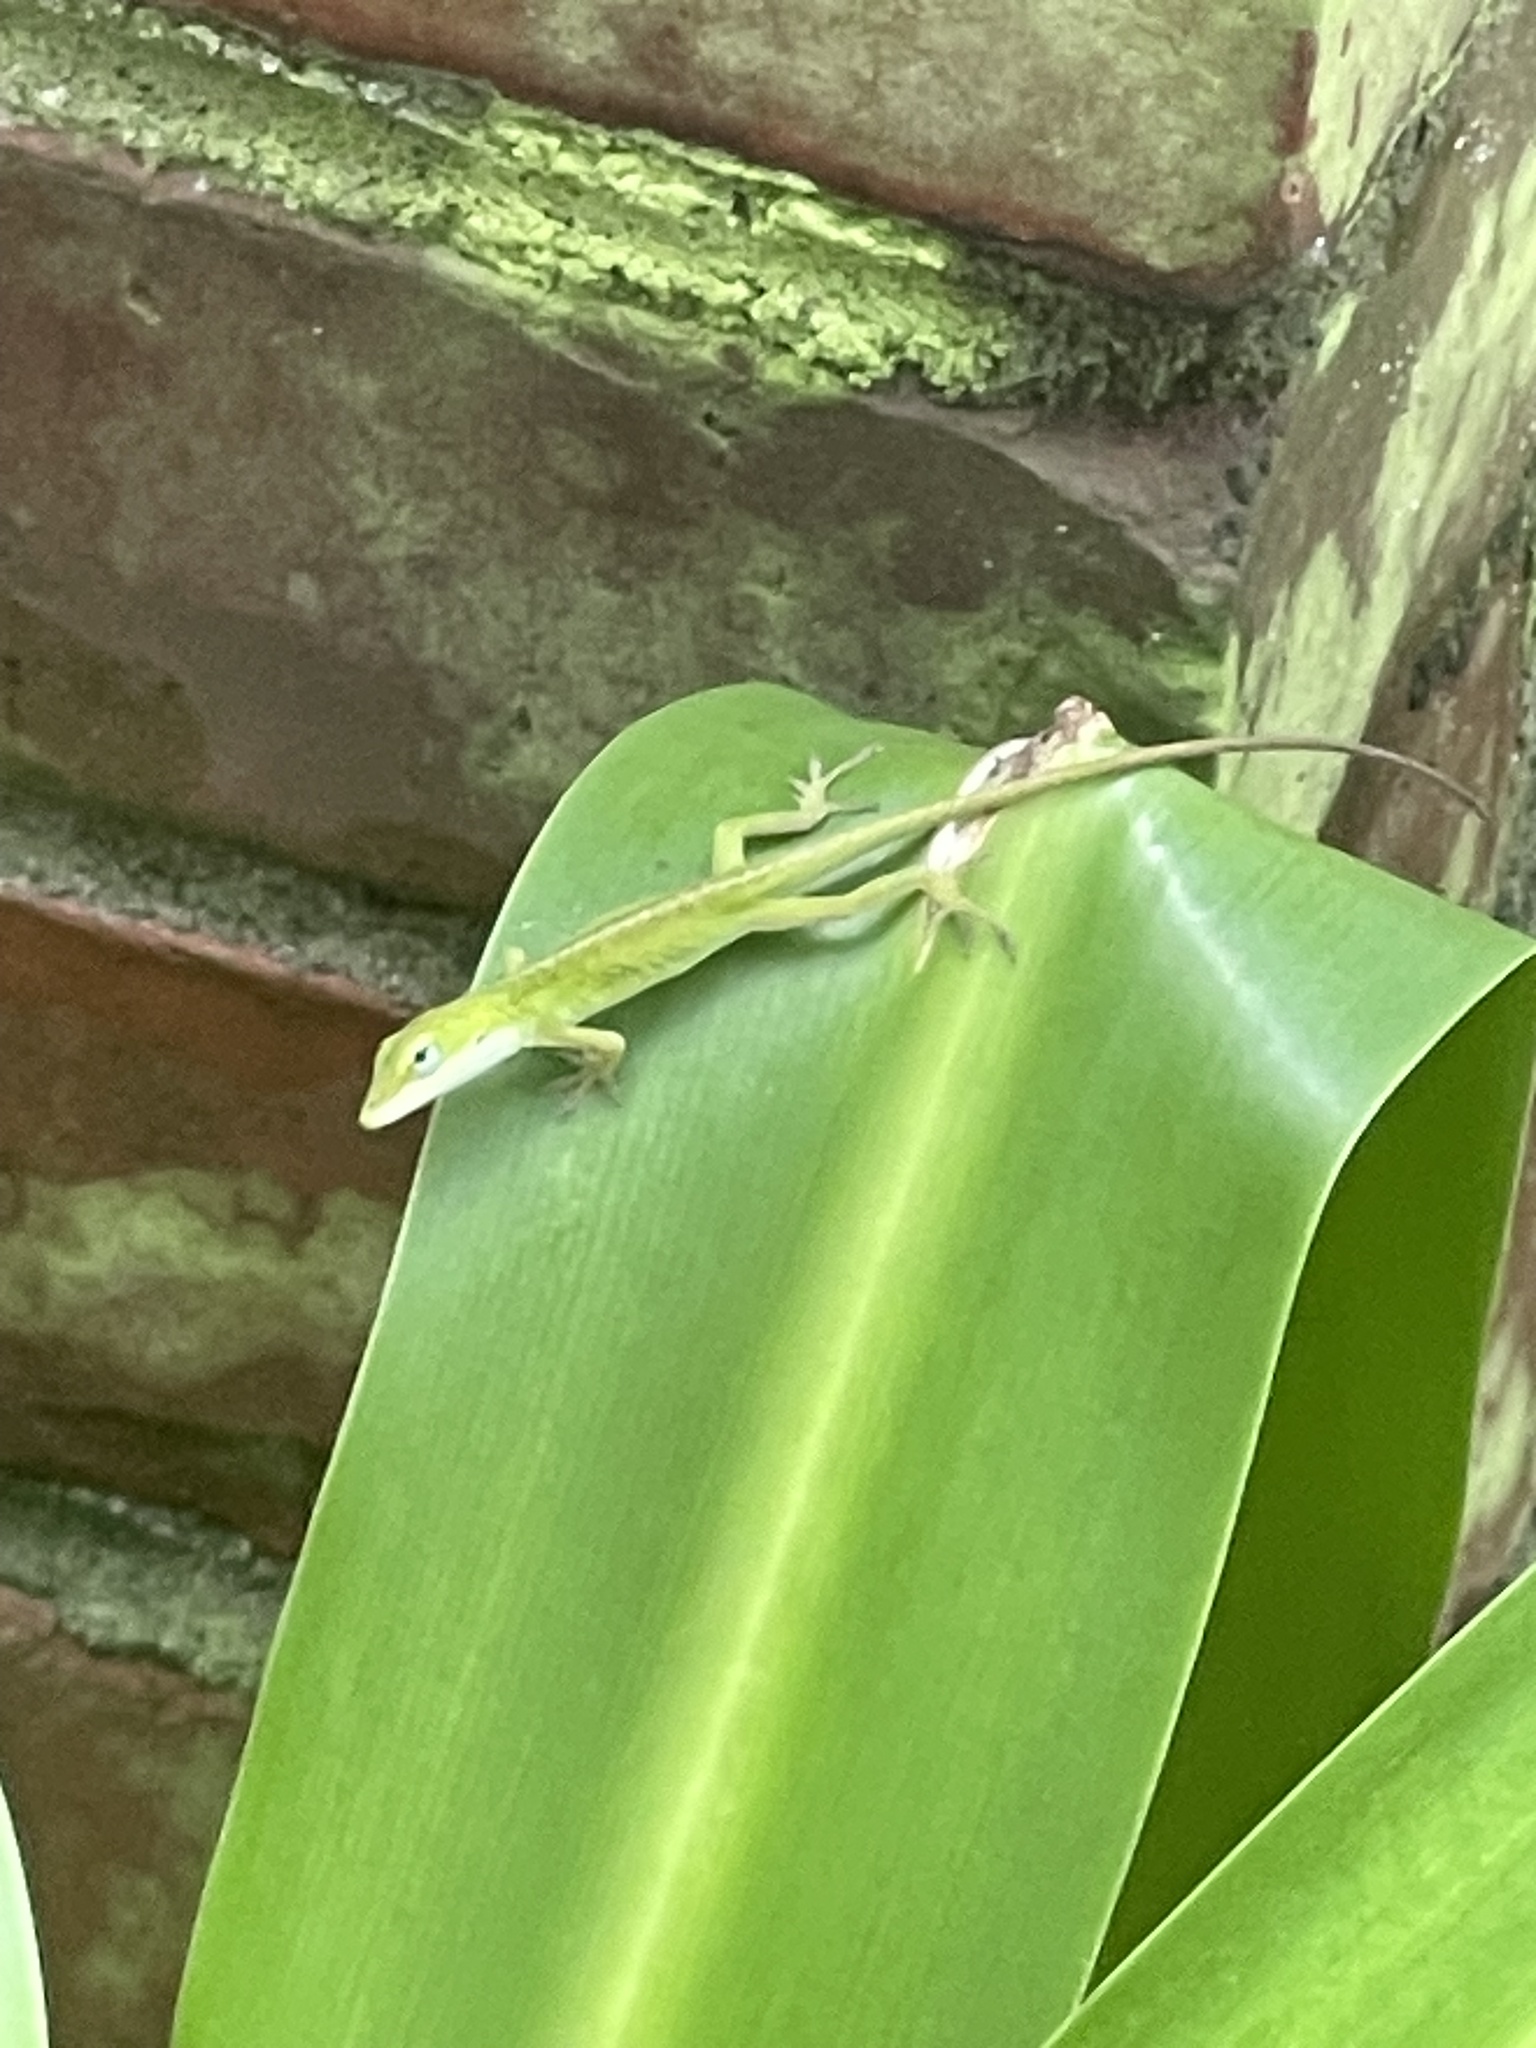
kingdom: Animalia
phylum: Chordata
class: Squamata
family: Dactyloidae
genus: Anolis
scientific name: Anolis carolinensis
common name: Green anole
